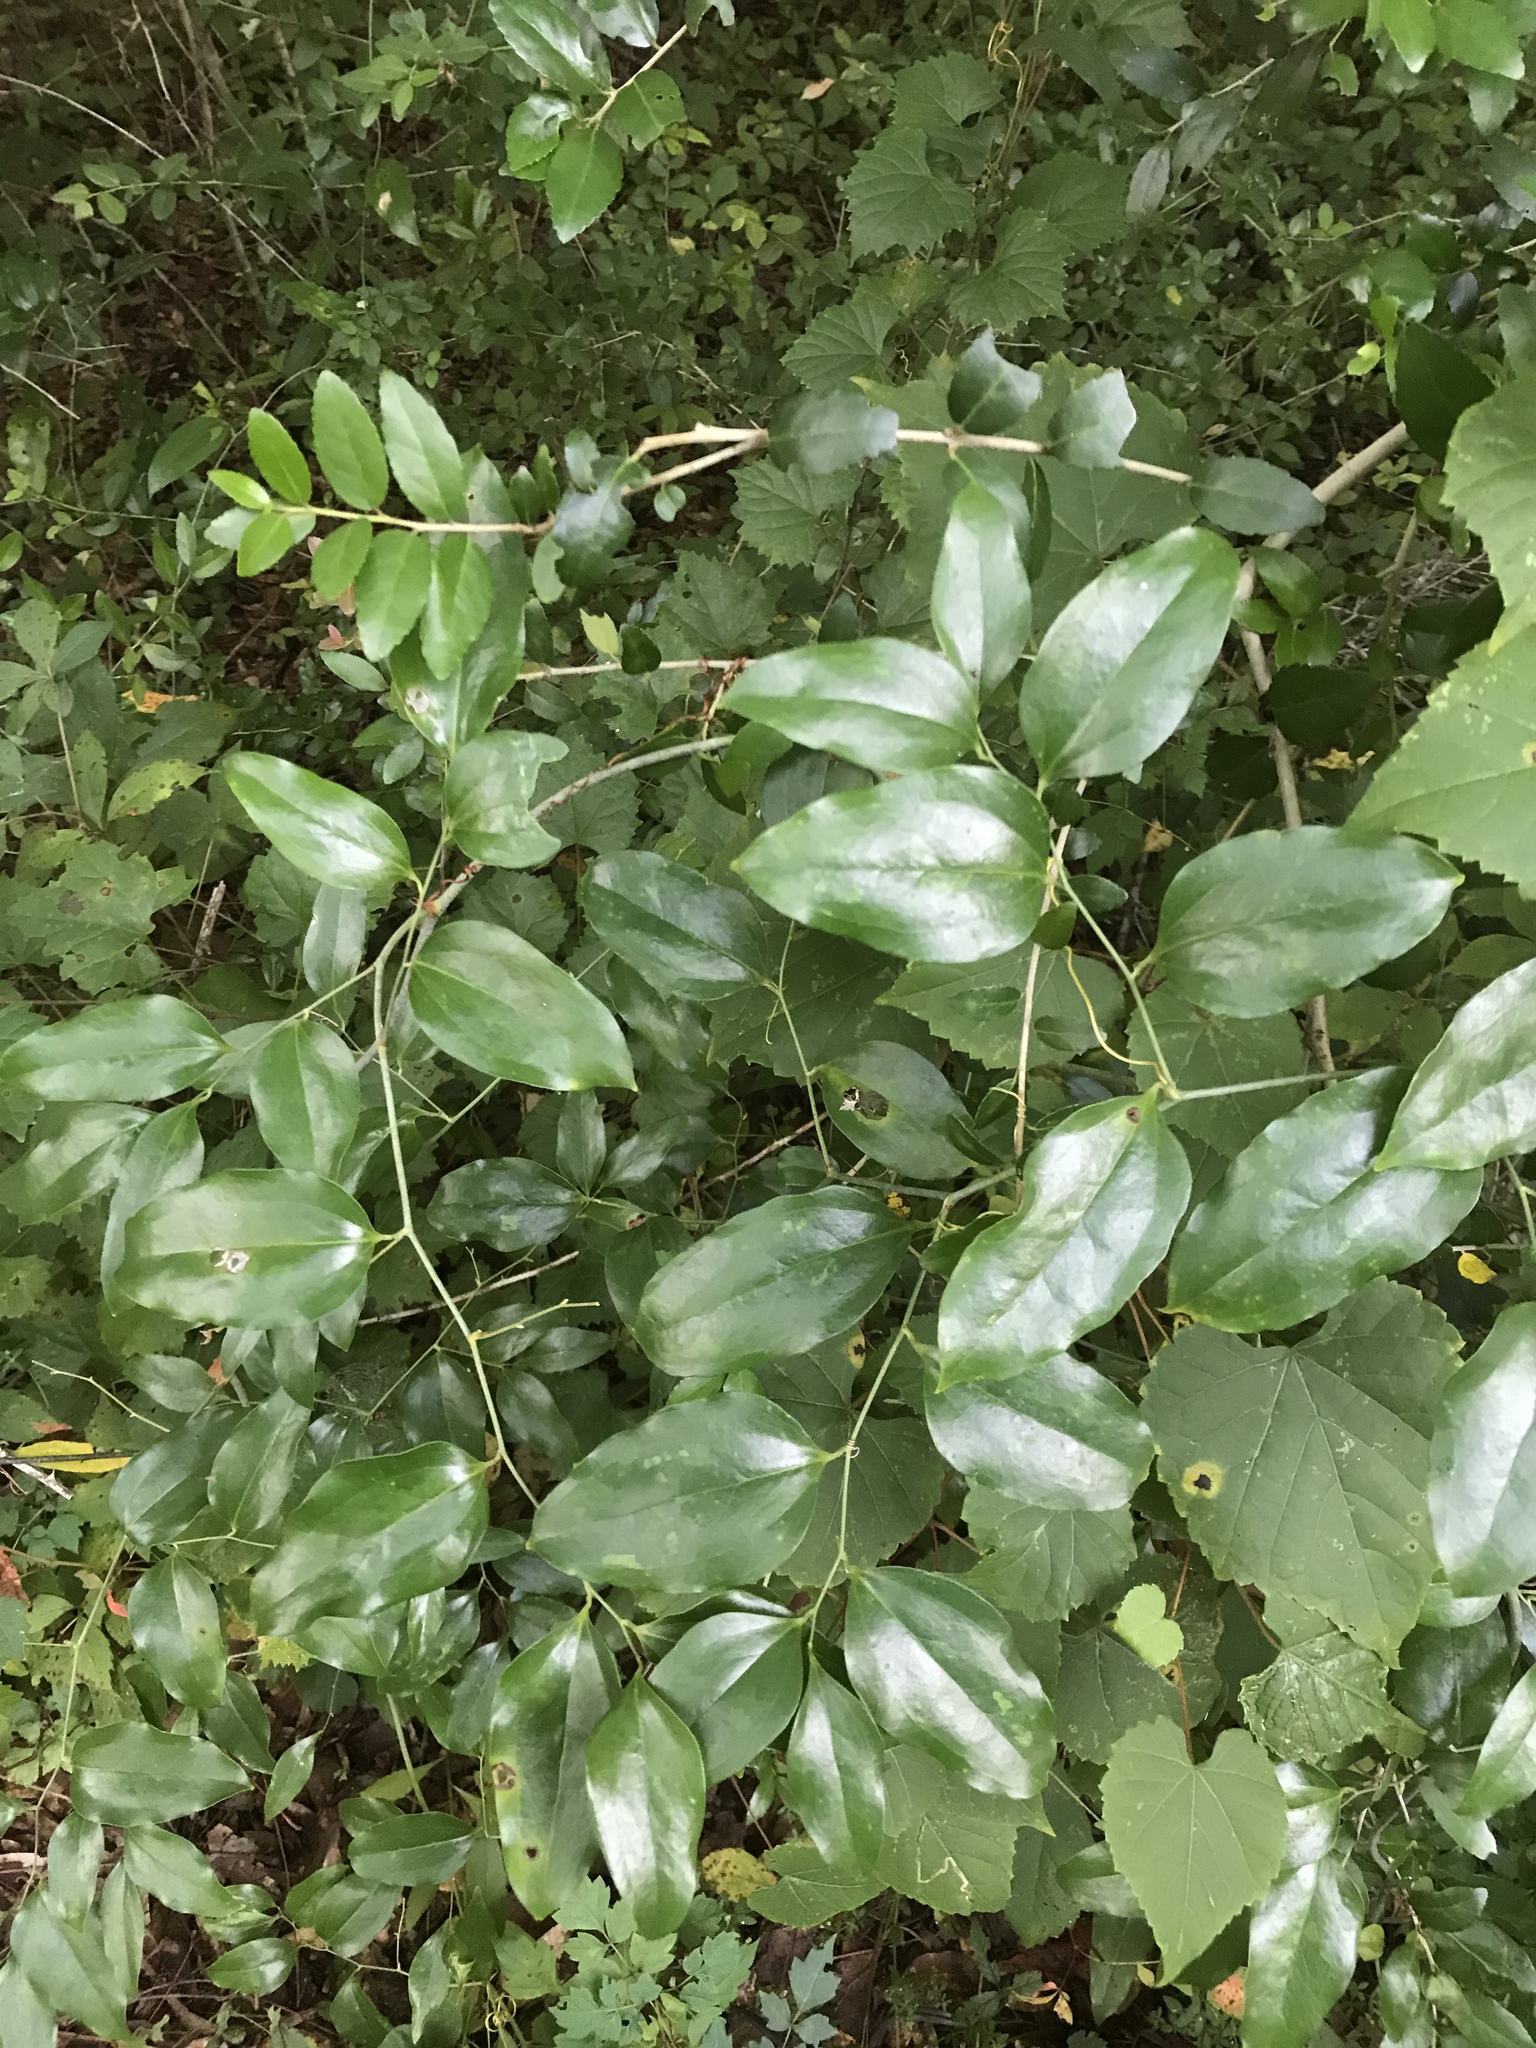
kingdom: Plantae
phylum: Tracheophyta
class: Liliopsida
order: Liliales
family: Smilacaceae
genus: Smilax
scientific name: Smilax maritima
